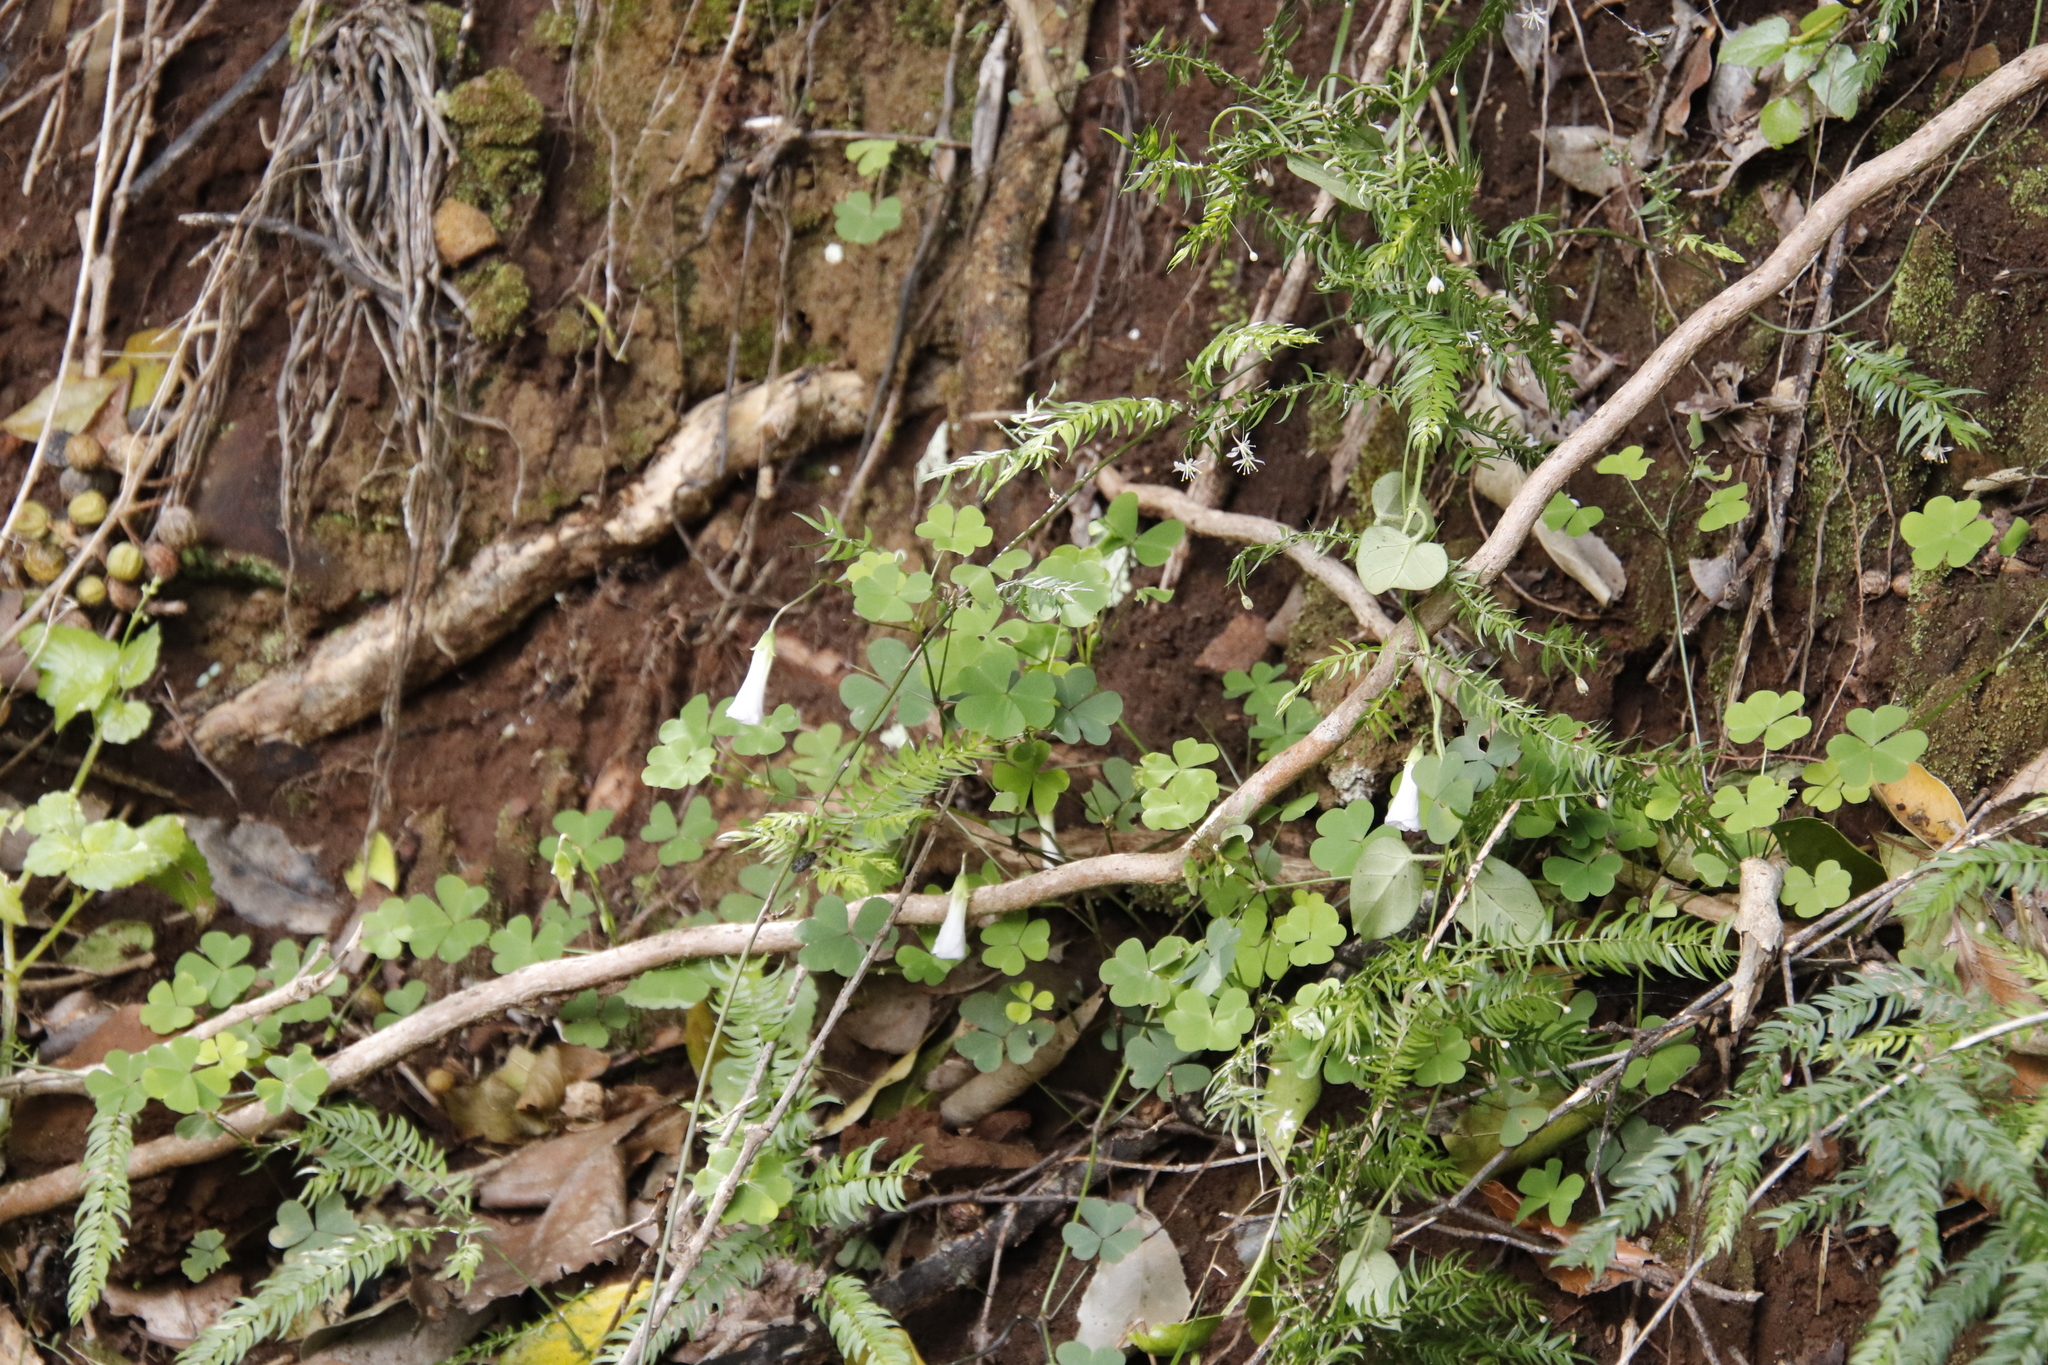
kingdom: Plantae
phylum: Tracheophyta
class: Magnoliopsida
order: Oxalidales
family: Oxalidaceae
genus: Oxalis
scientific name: Oxalis incarnata
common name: Pale pink-sorrel
